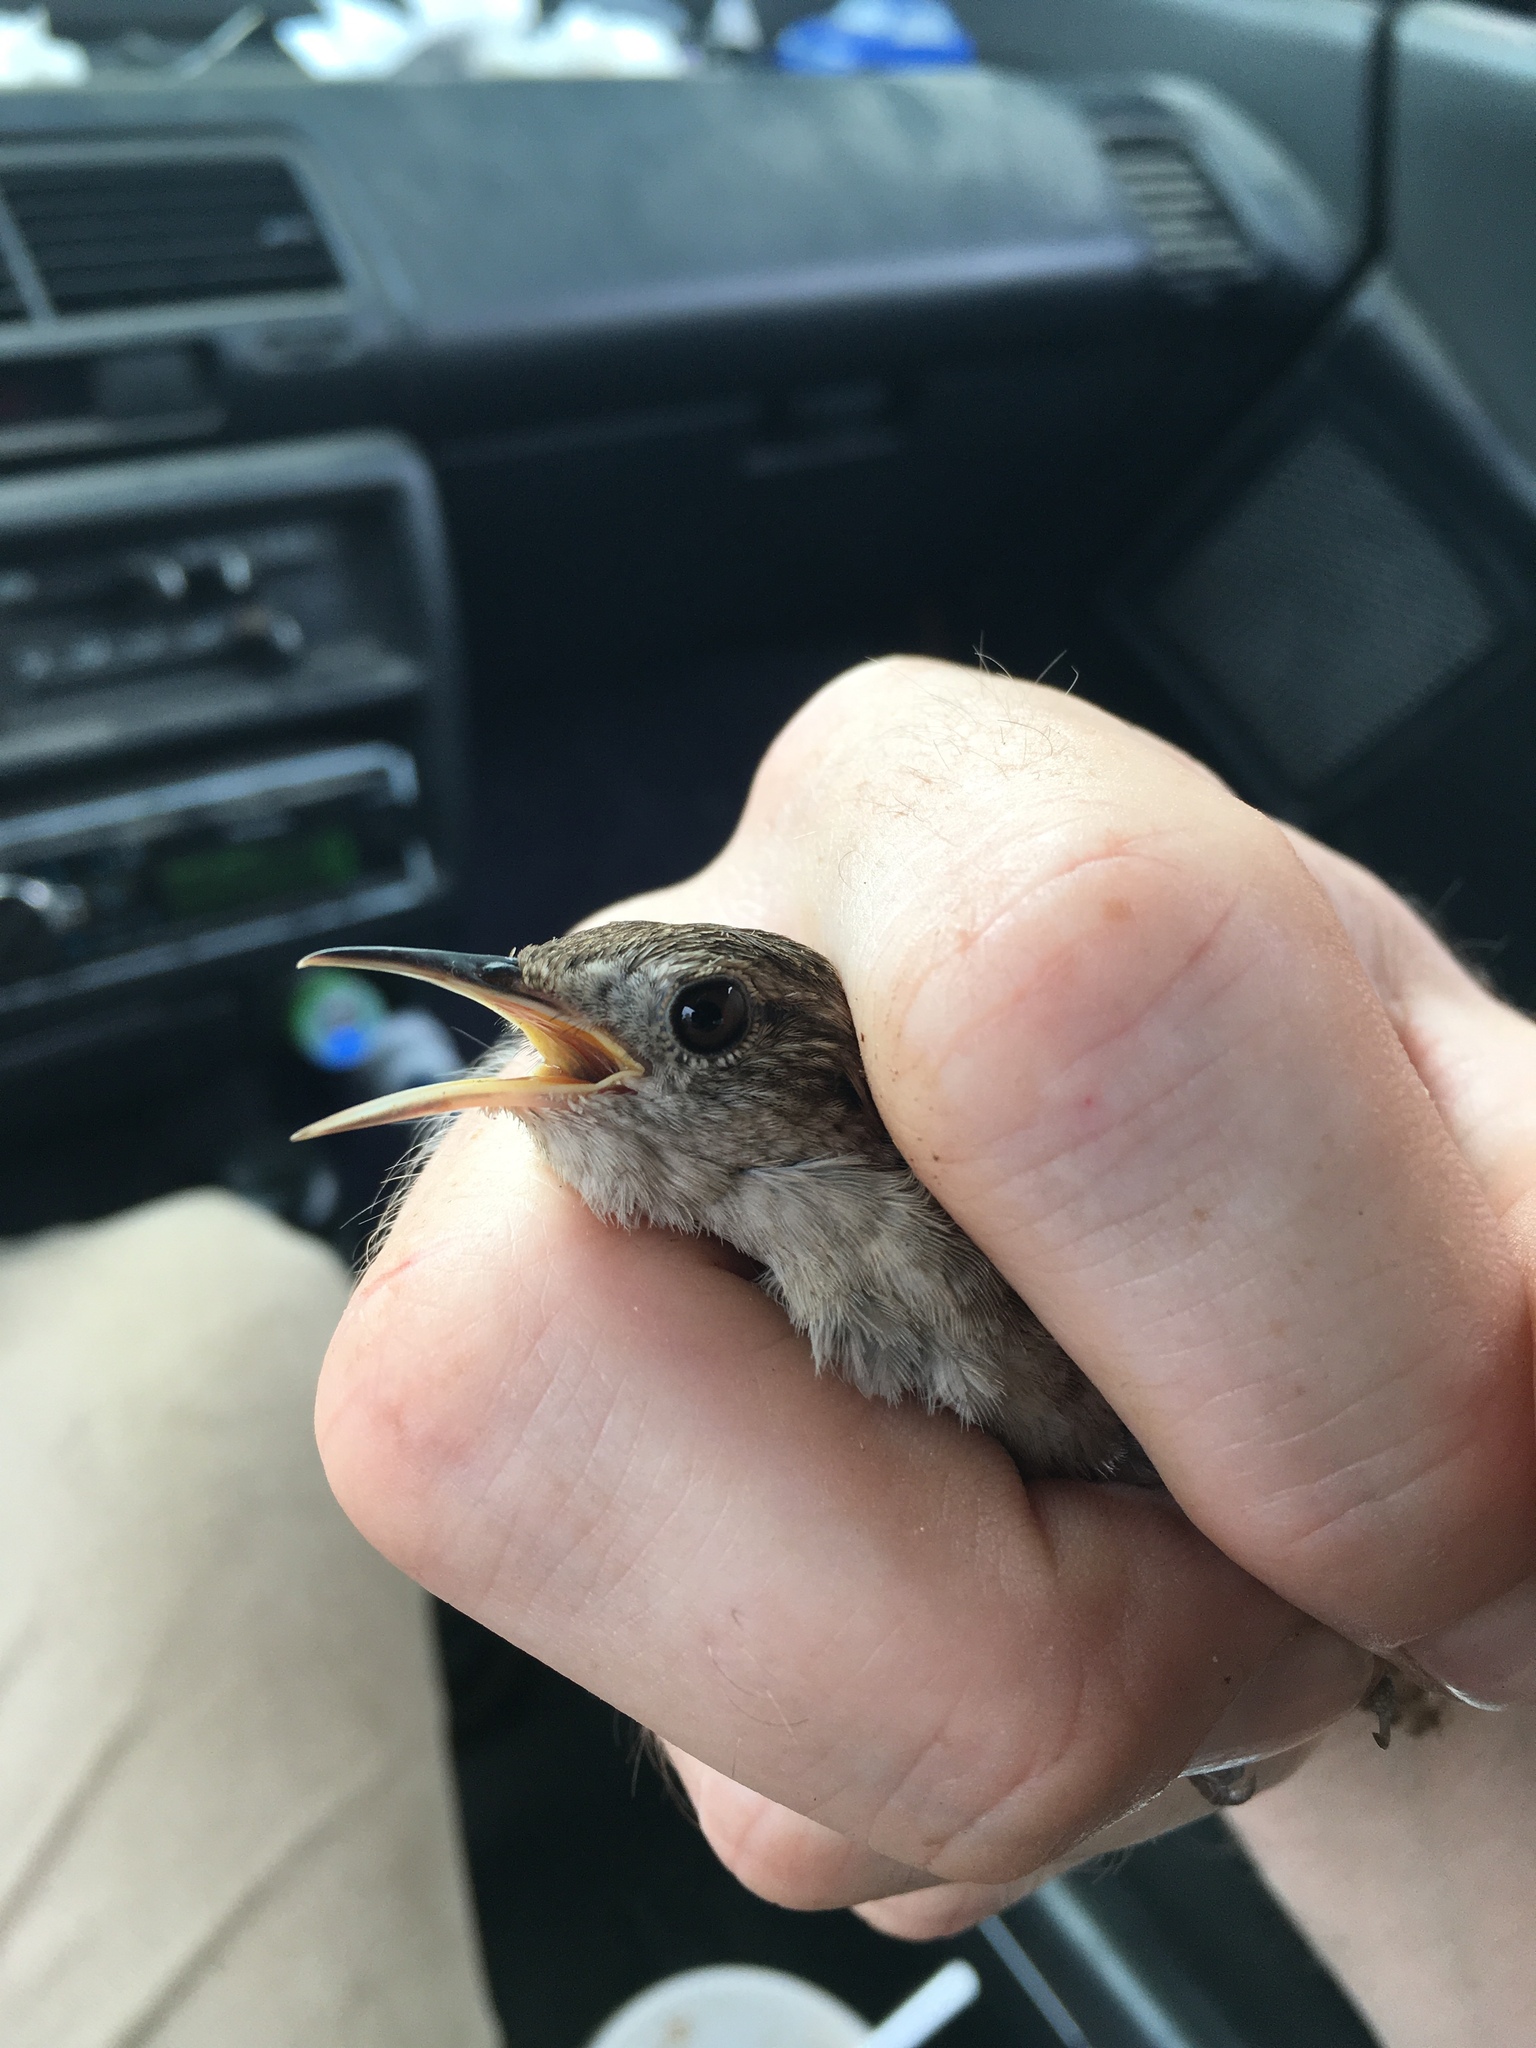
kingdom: Animalia
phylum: Chordata
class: Aves
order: Passeriformes
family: Troglodytidae
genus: Troglodytes
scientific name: Troglodytes aedon
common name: House wren
